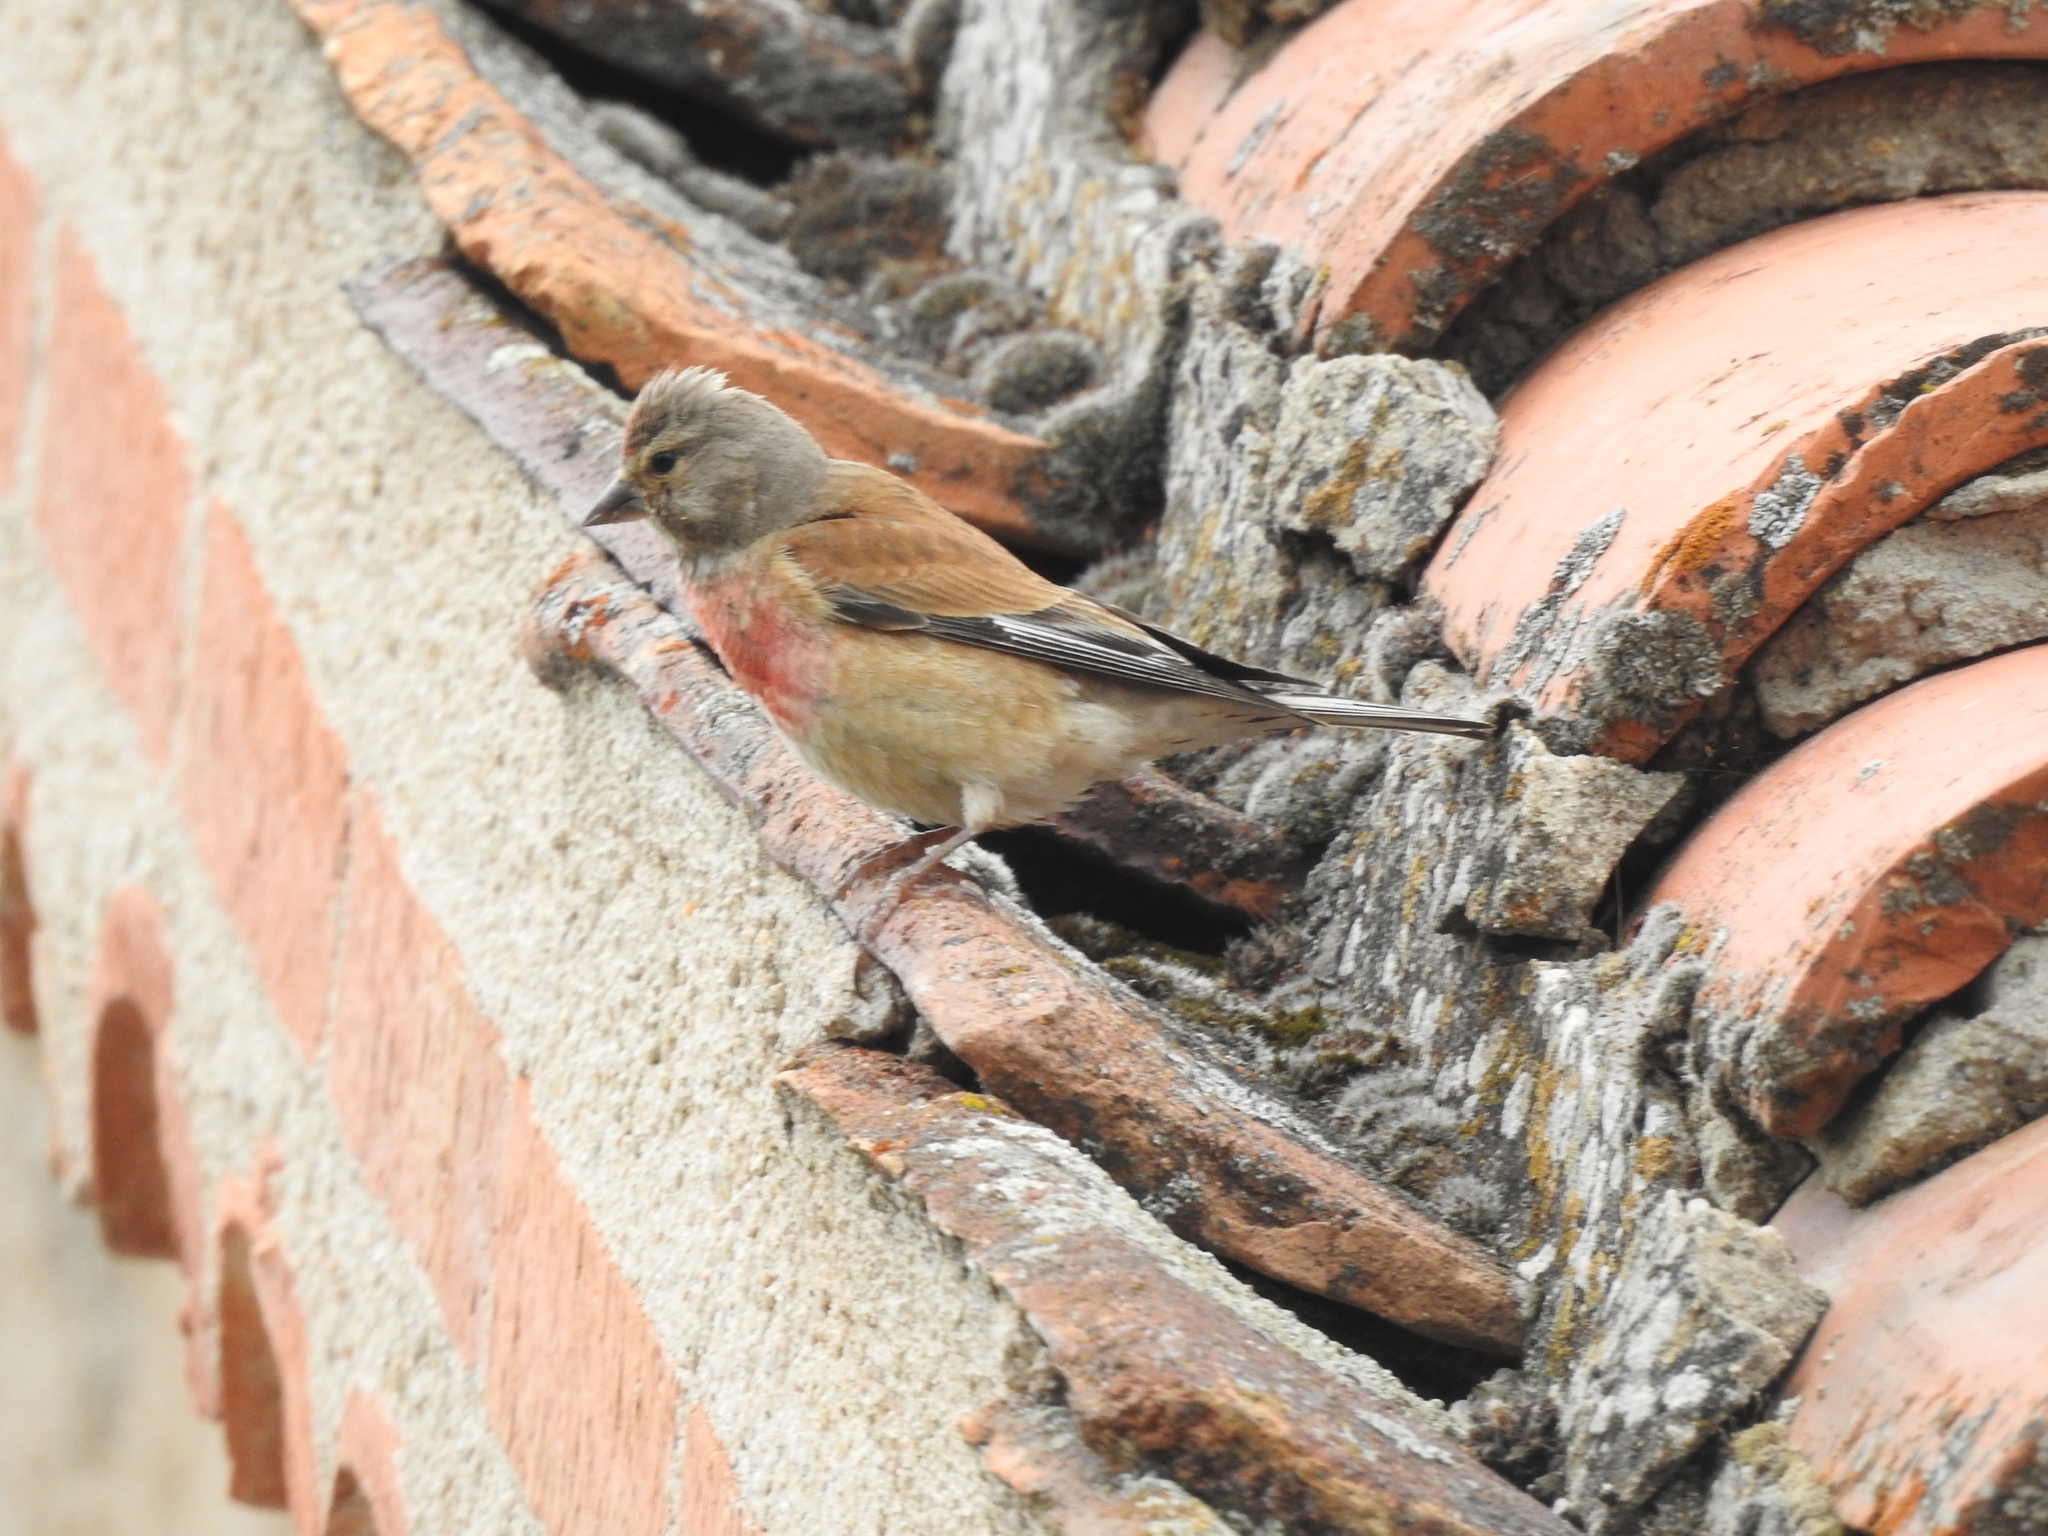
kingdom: Animalia
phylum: Chordata
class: Aves
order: Passeriformes
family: Fringillidae
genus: Linaria
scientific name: Linaria cannabina
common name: Common linnet
